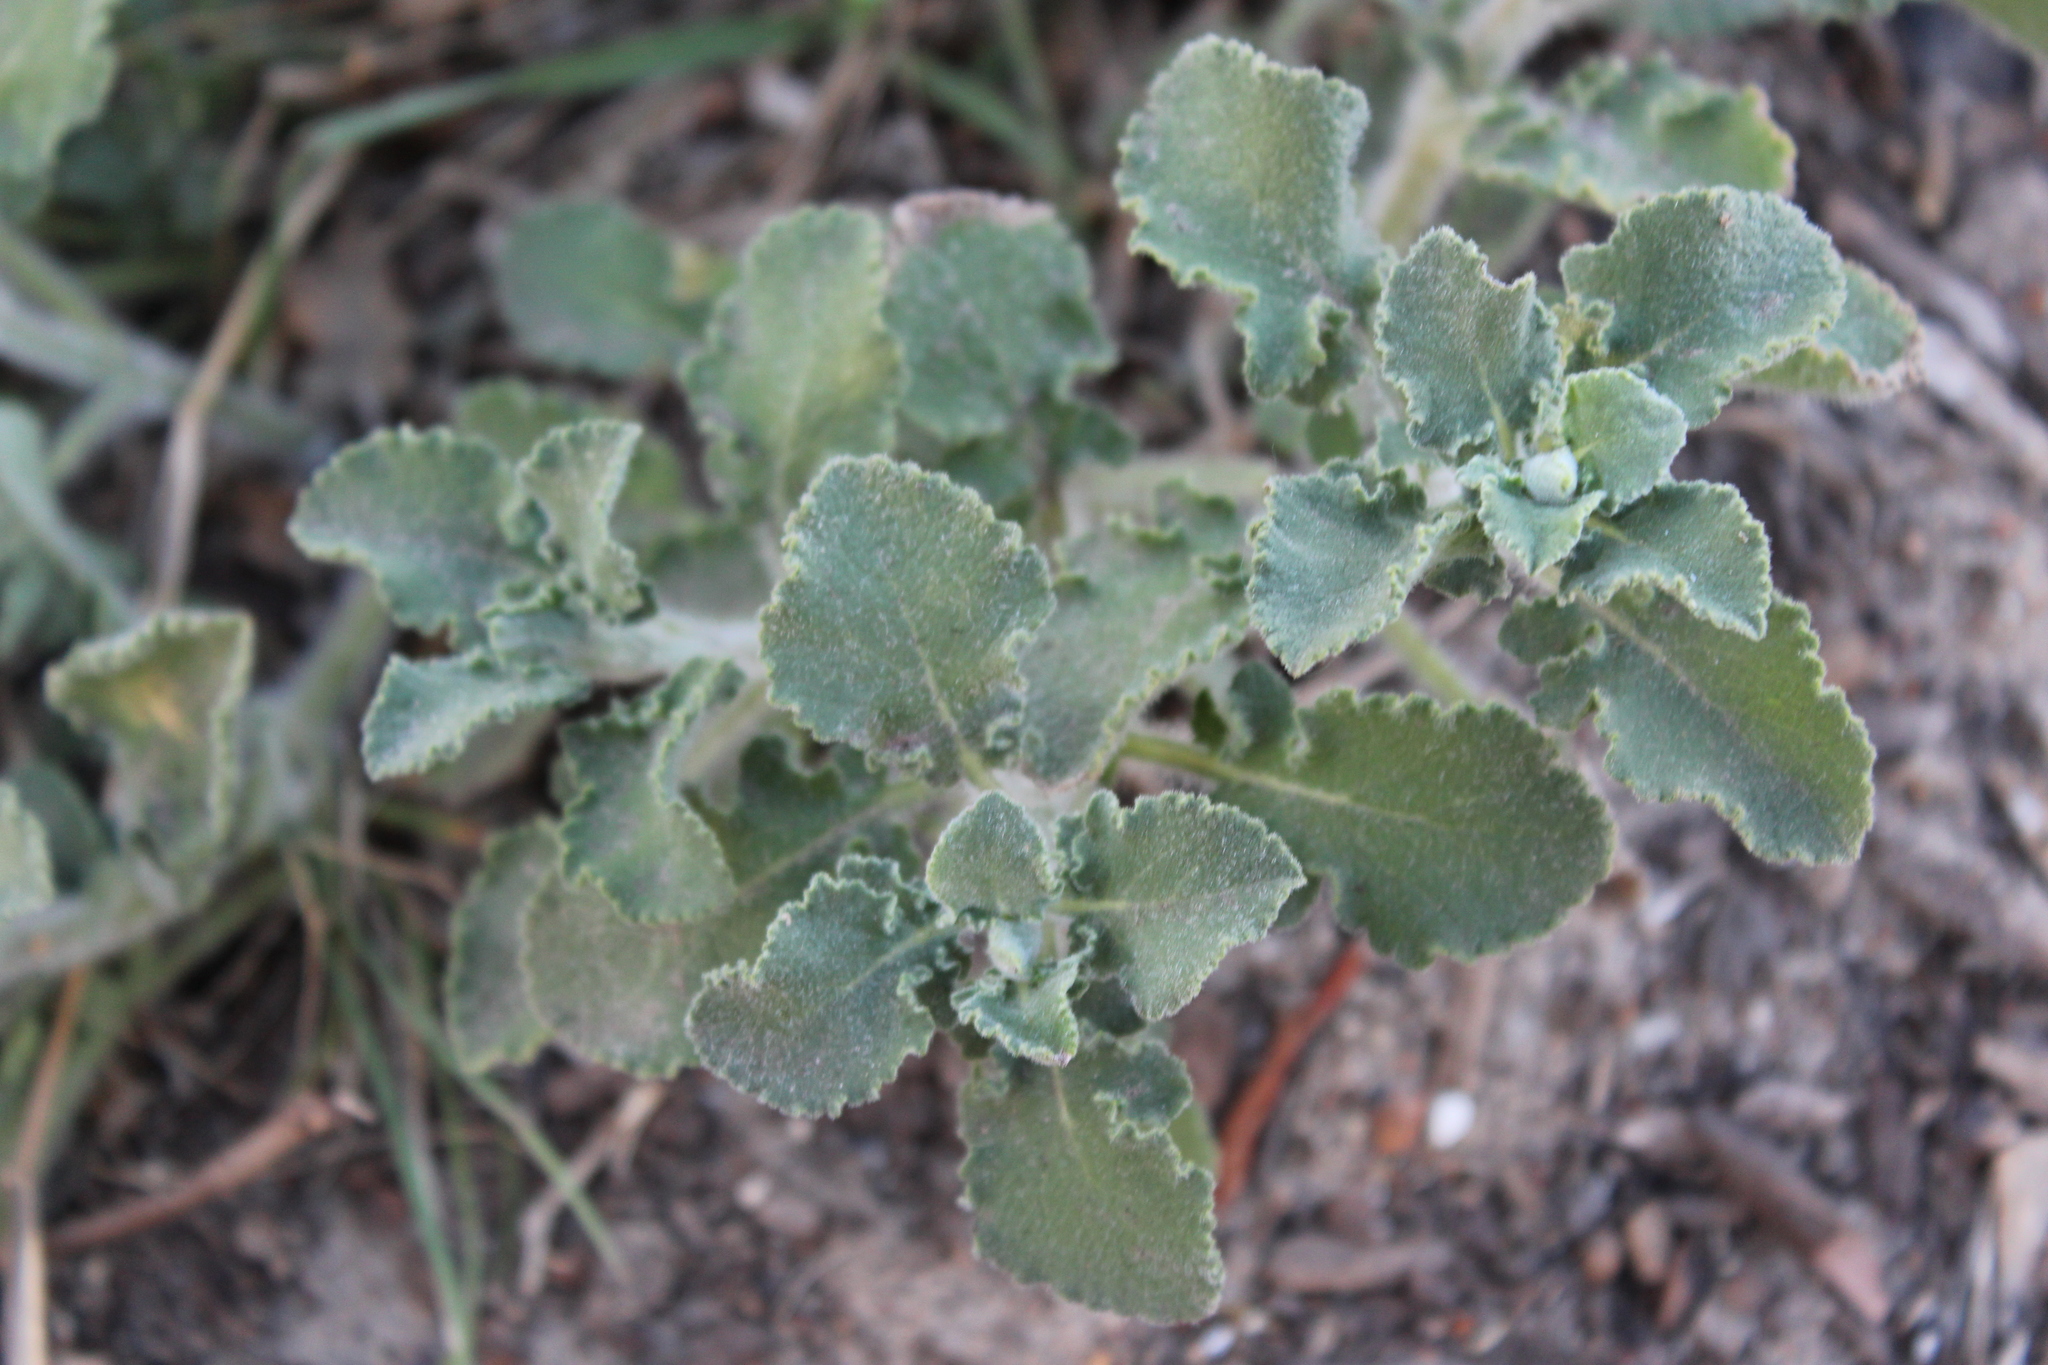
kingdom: Plantae
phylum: Tracheophyta
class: Magnoliopsida
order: Lamiales
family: Lamiaceae
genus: Salvia
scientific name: Salvia africana
